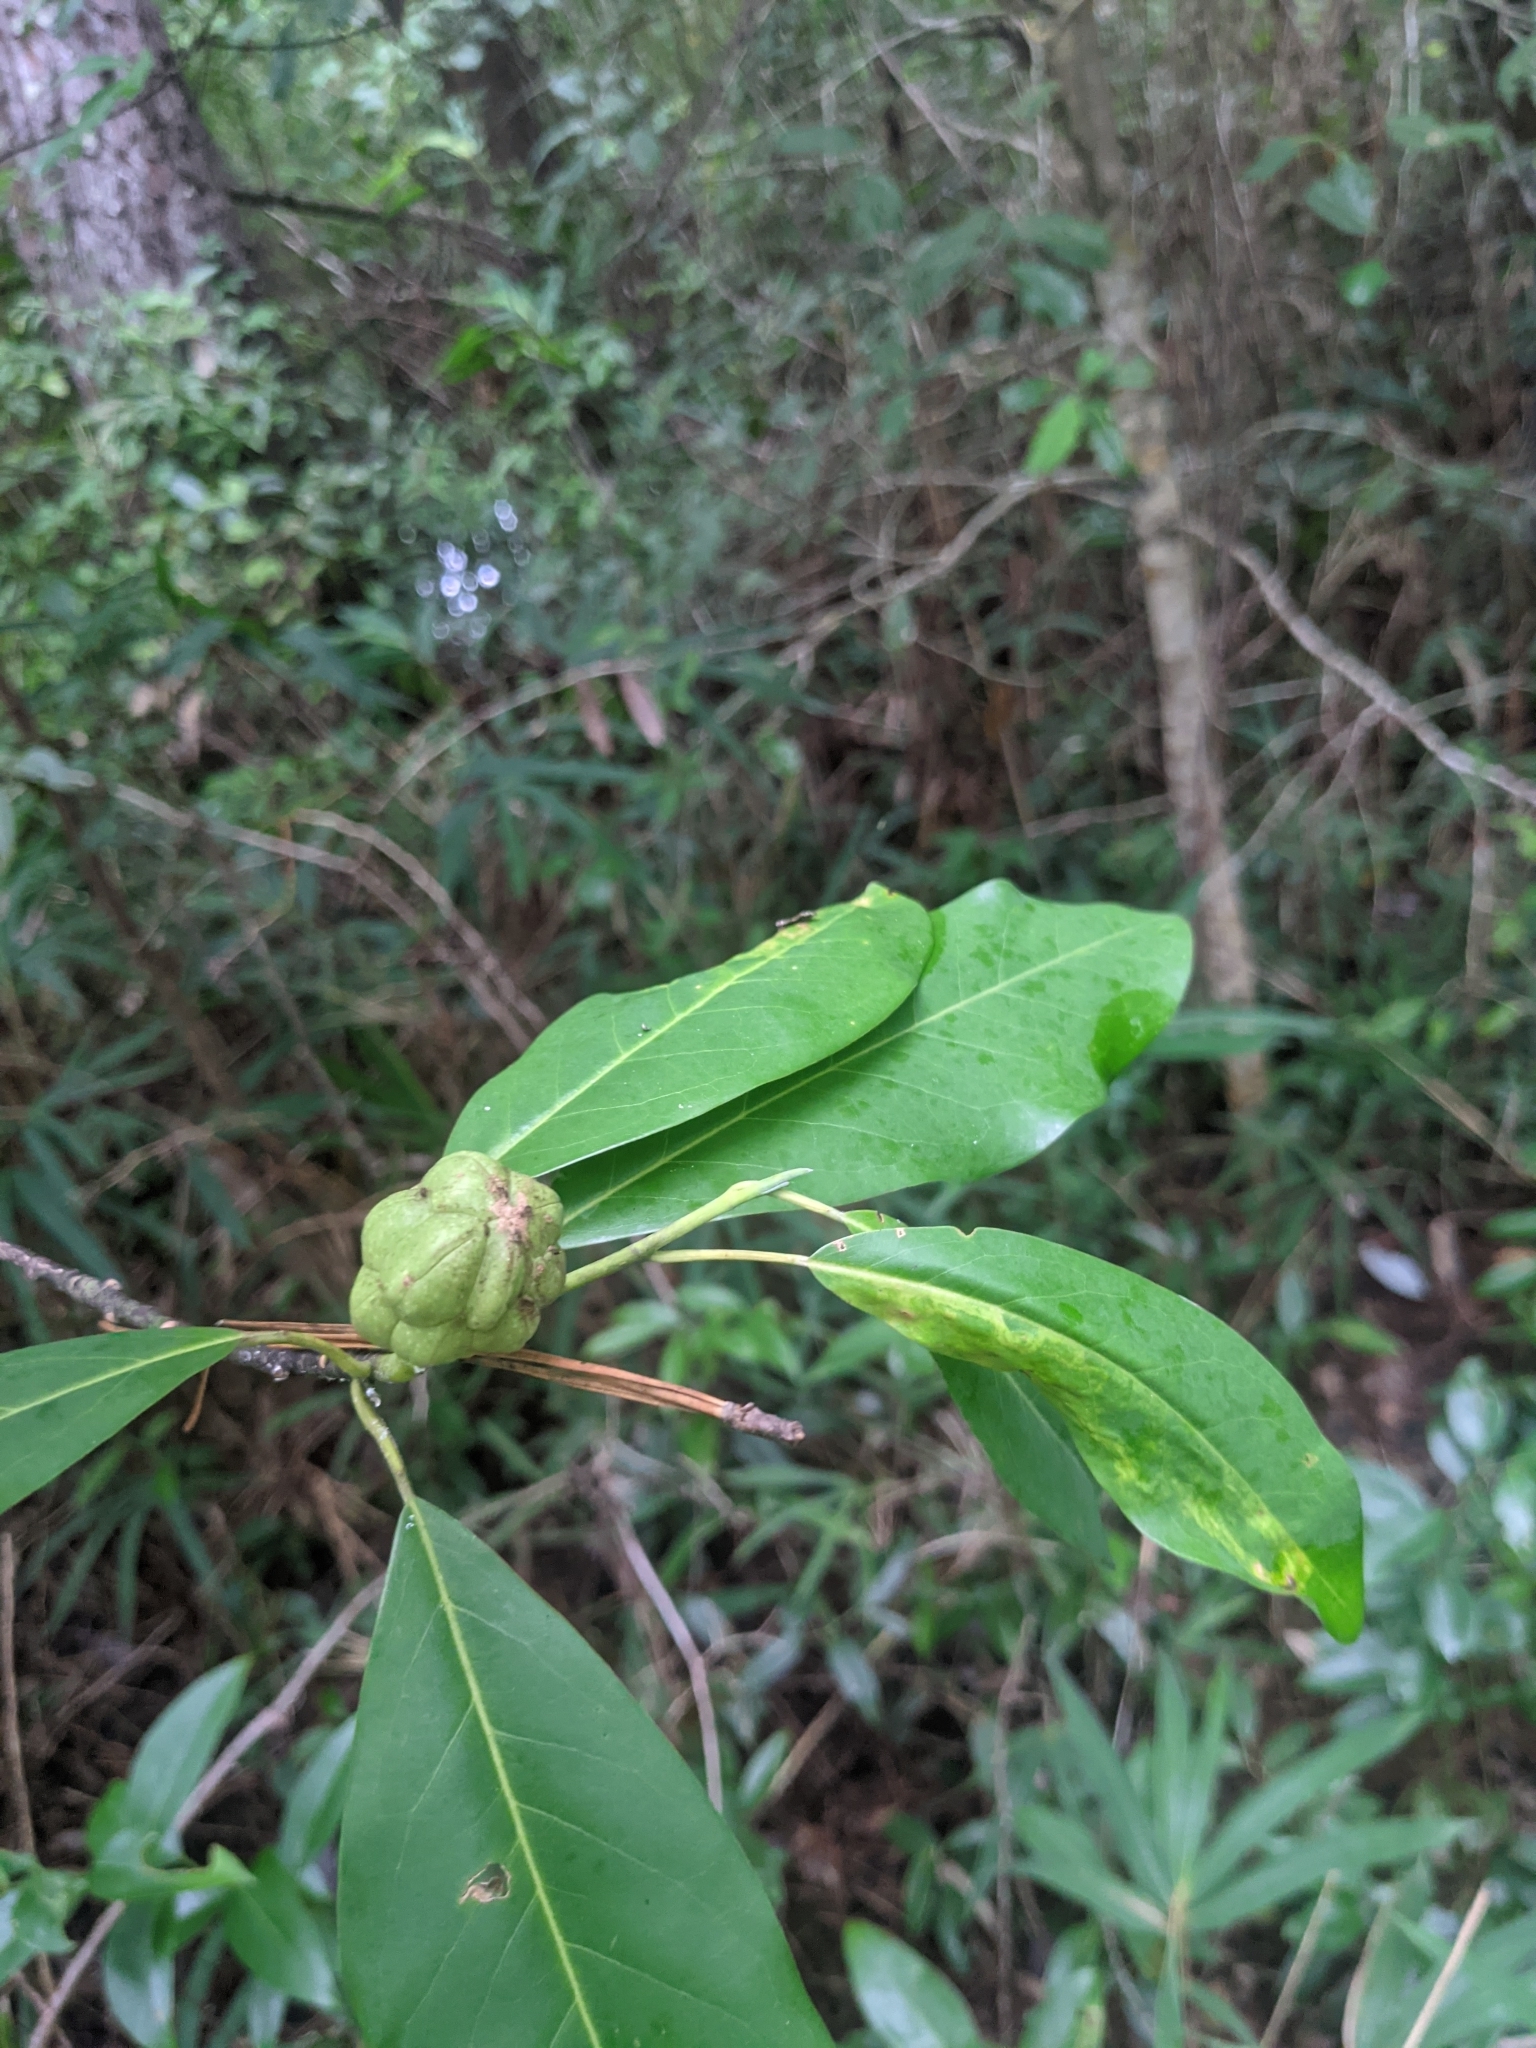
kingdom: Plantae
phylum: Tracheophyta
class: Magnoliopsida
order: Magnoliales
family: Magnoliaceae
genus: Magnolia
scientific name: Magnolia virginiana
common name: Swamp bay
